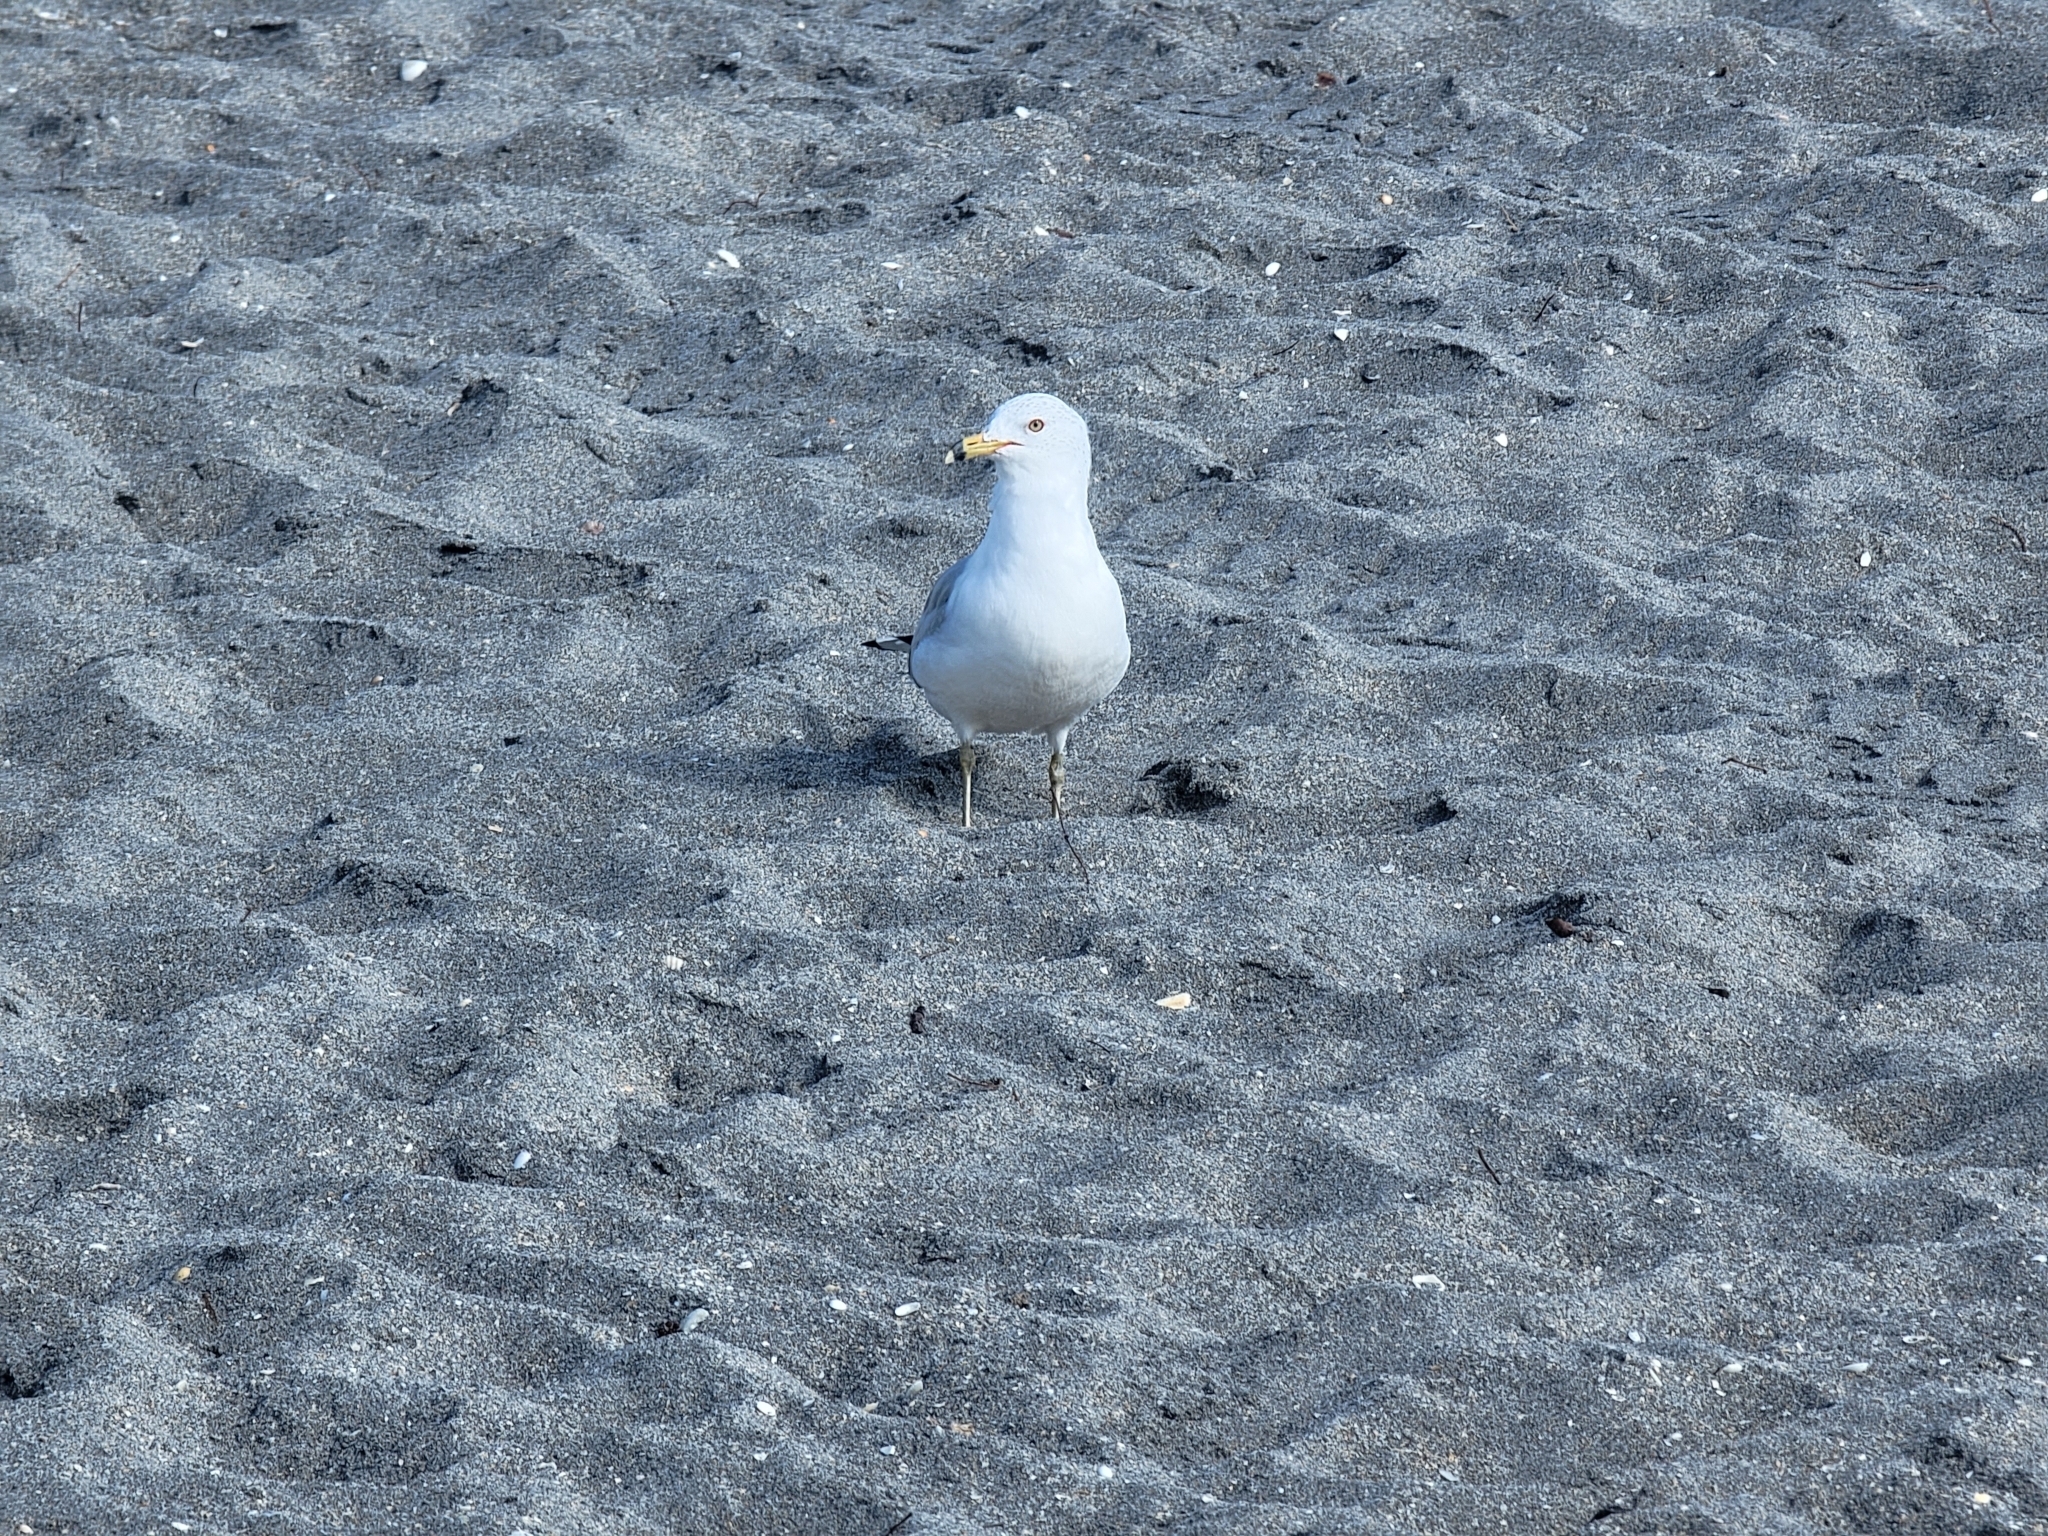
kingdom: Animalia
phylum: Chordata
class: Aves
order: Charadriiformes
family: Laridae
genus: Larus
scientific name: Larus delawarensis
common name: Ring-billed gull
